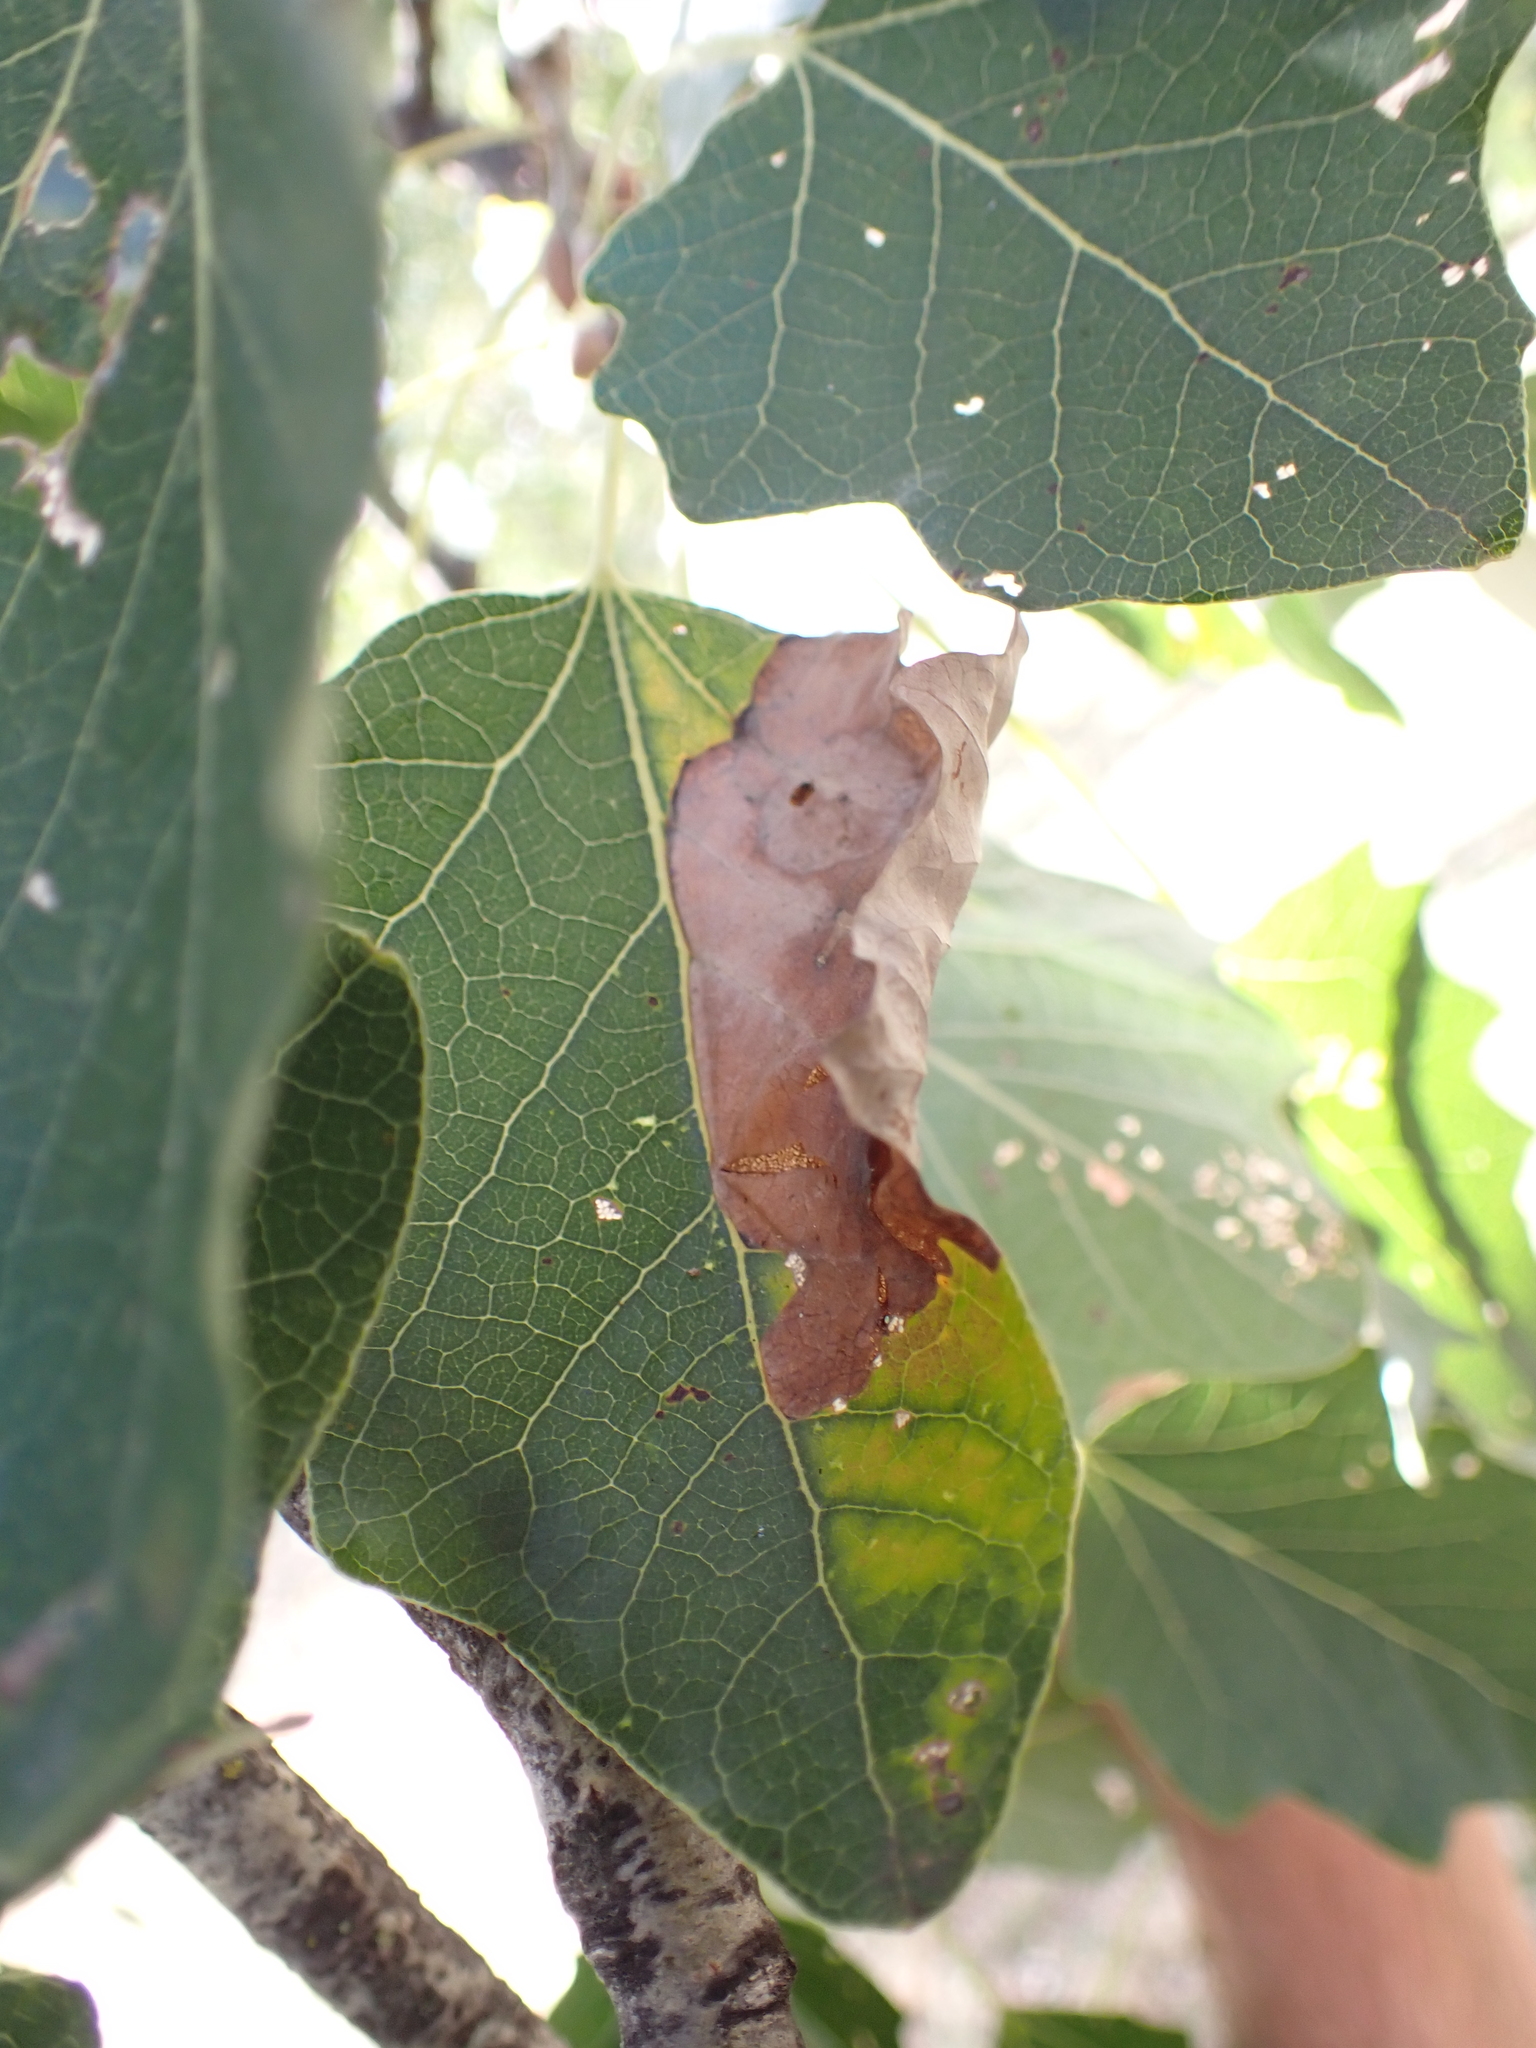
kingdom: Animalia
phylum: Arthropoda
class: Insecta
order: Hymenoptera
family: Tenthredinidae
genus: Heterarthrus
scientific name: Heterarthrus ochropoda
